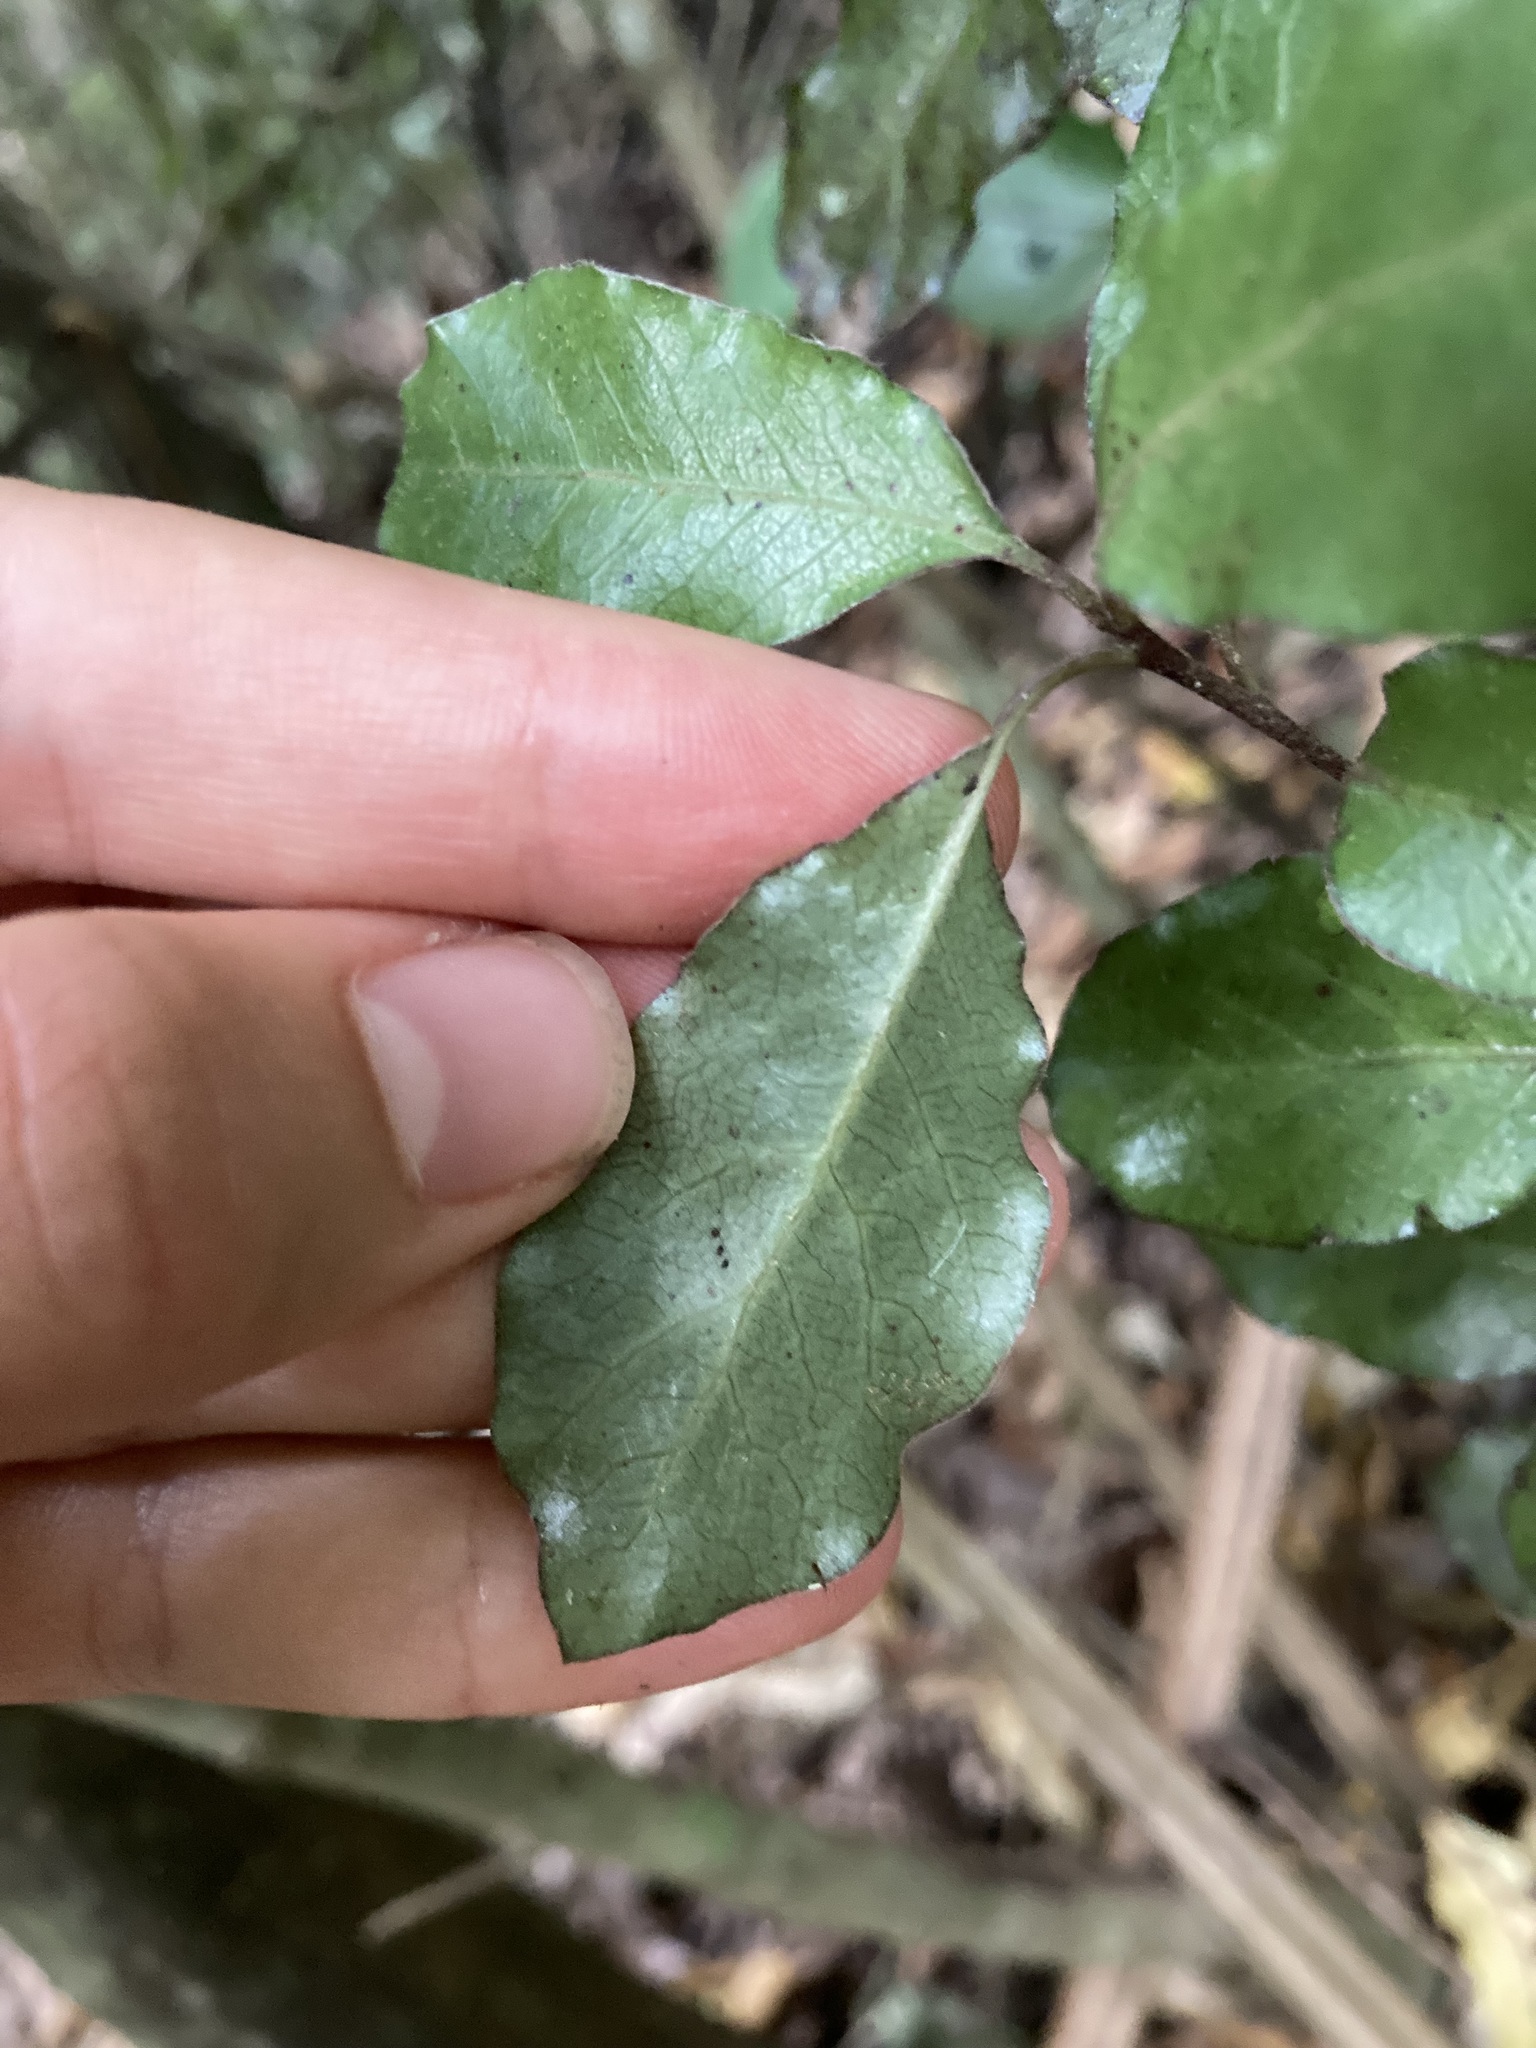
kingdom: Plantae
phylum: Tracheophyta
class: Magnoliopsida
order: Apiales
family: Pittosporaceae
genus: Pittosporum
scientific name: Pittosporum tenuifolium
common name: Kohuhu
